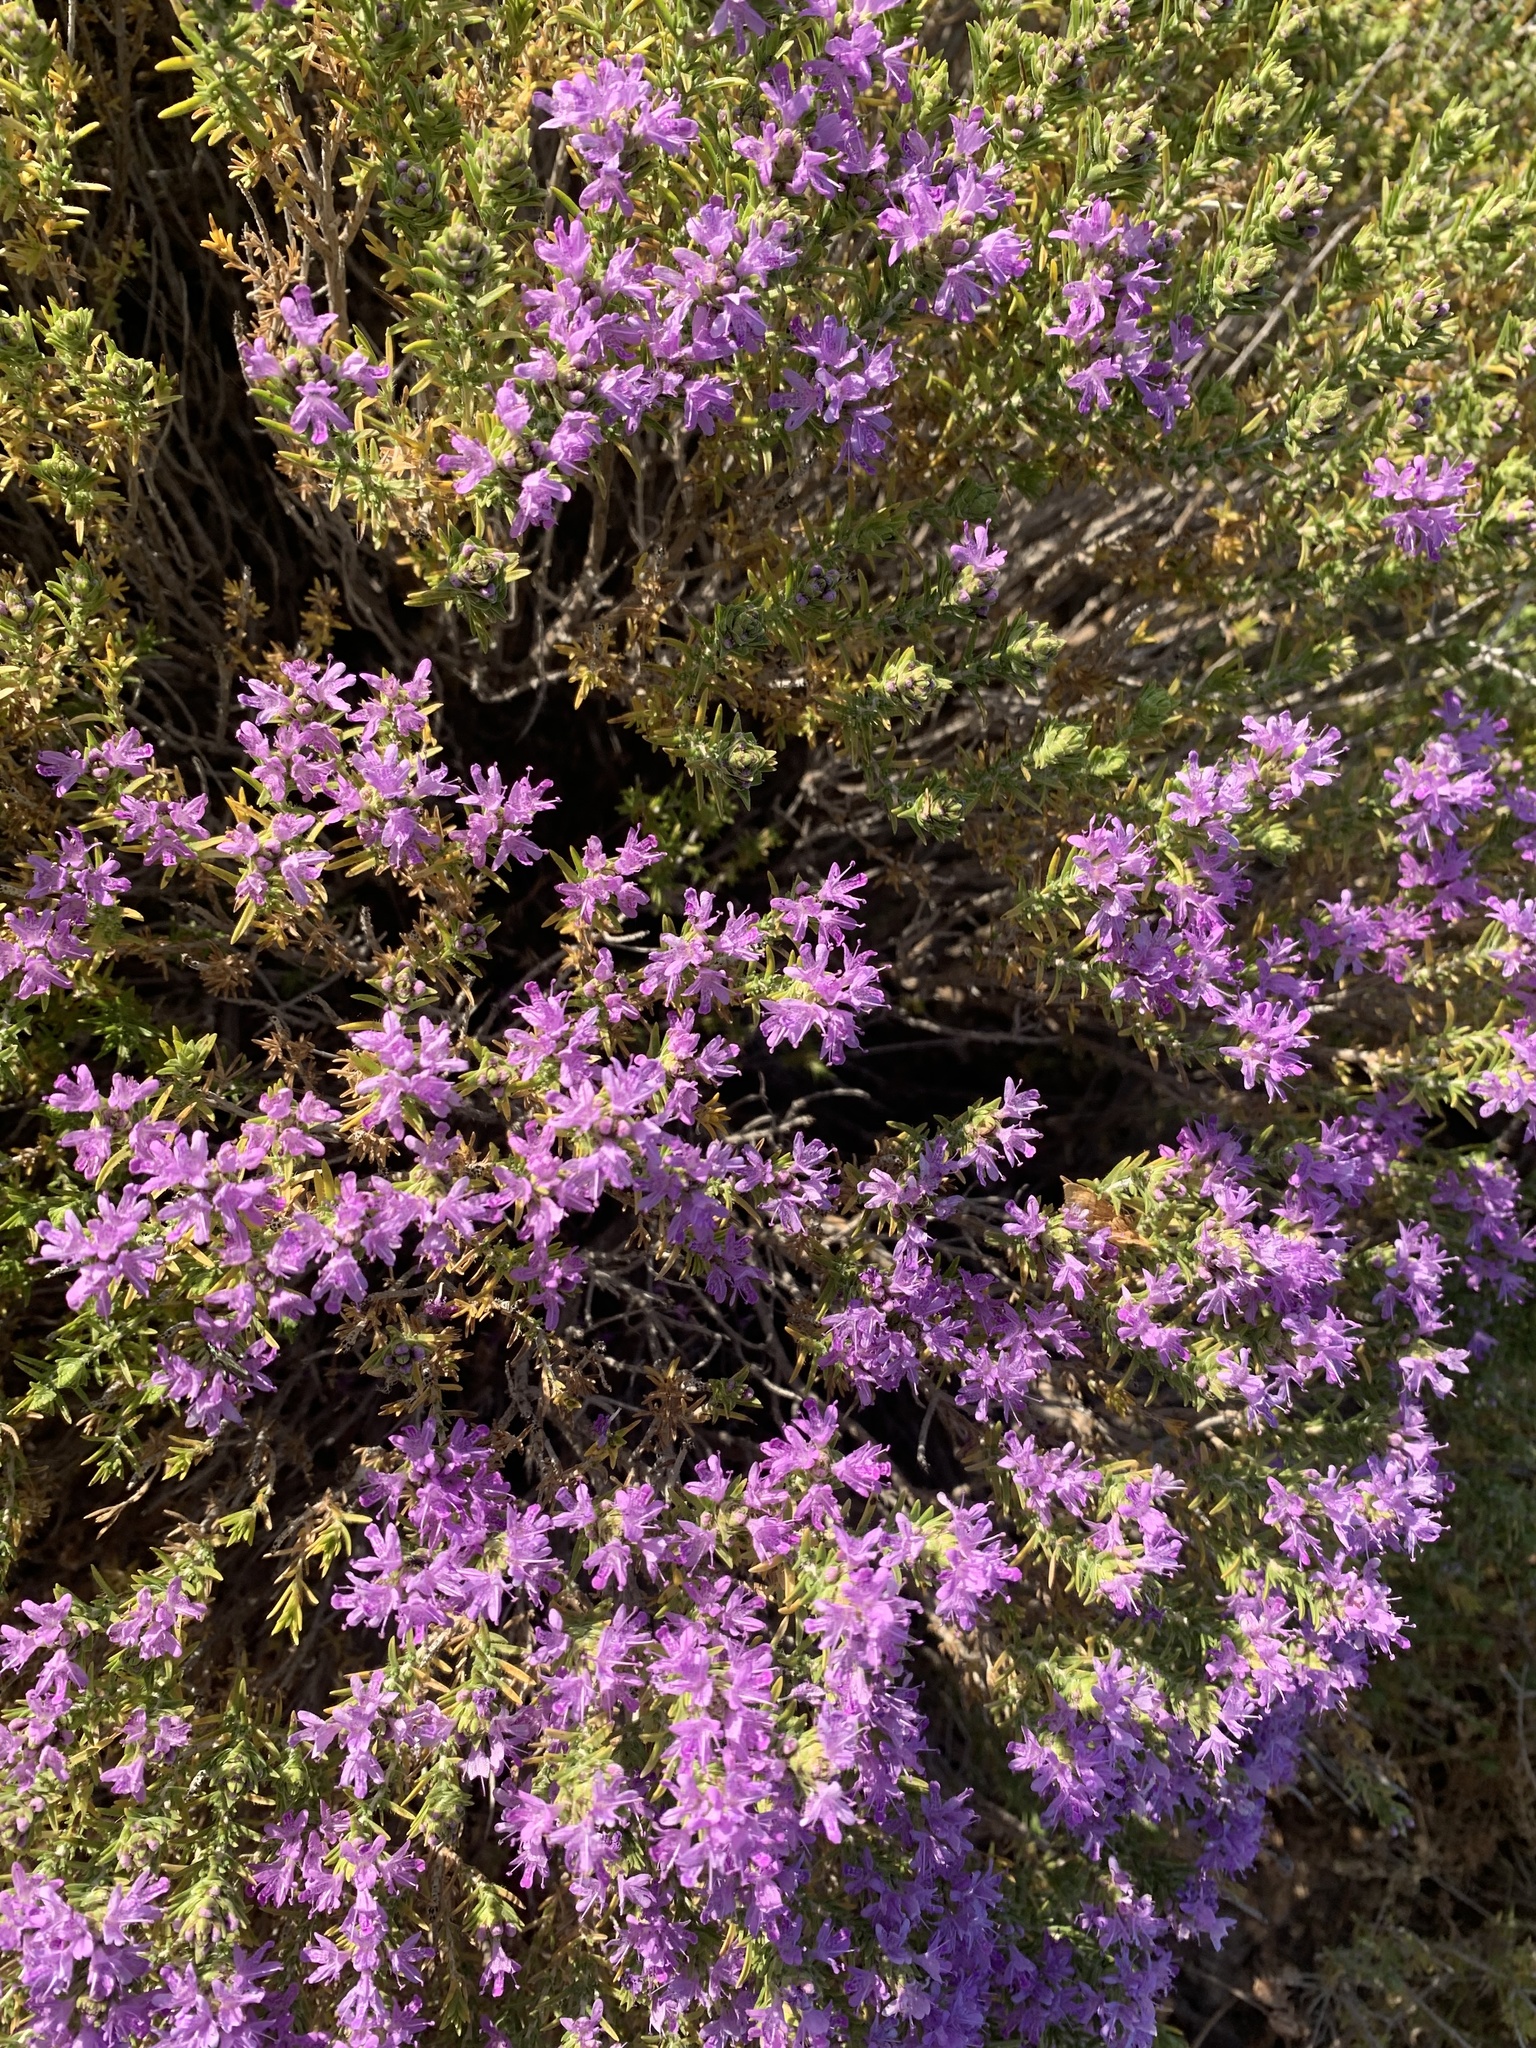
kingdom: Plantae
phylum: Tracheophyta
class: Magnoliopsida
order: Lamiales
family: Lamiaceae
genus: Thymbra
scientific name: Thymbra capitata
